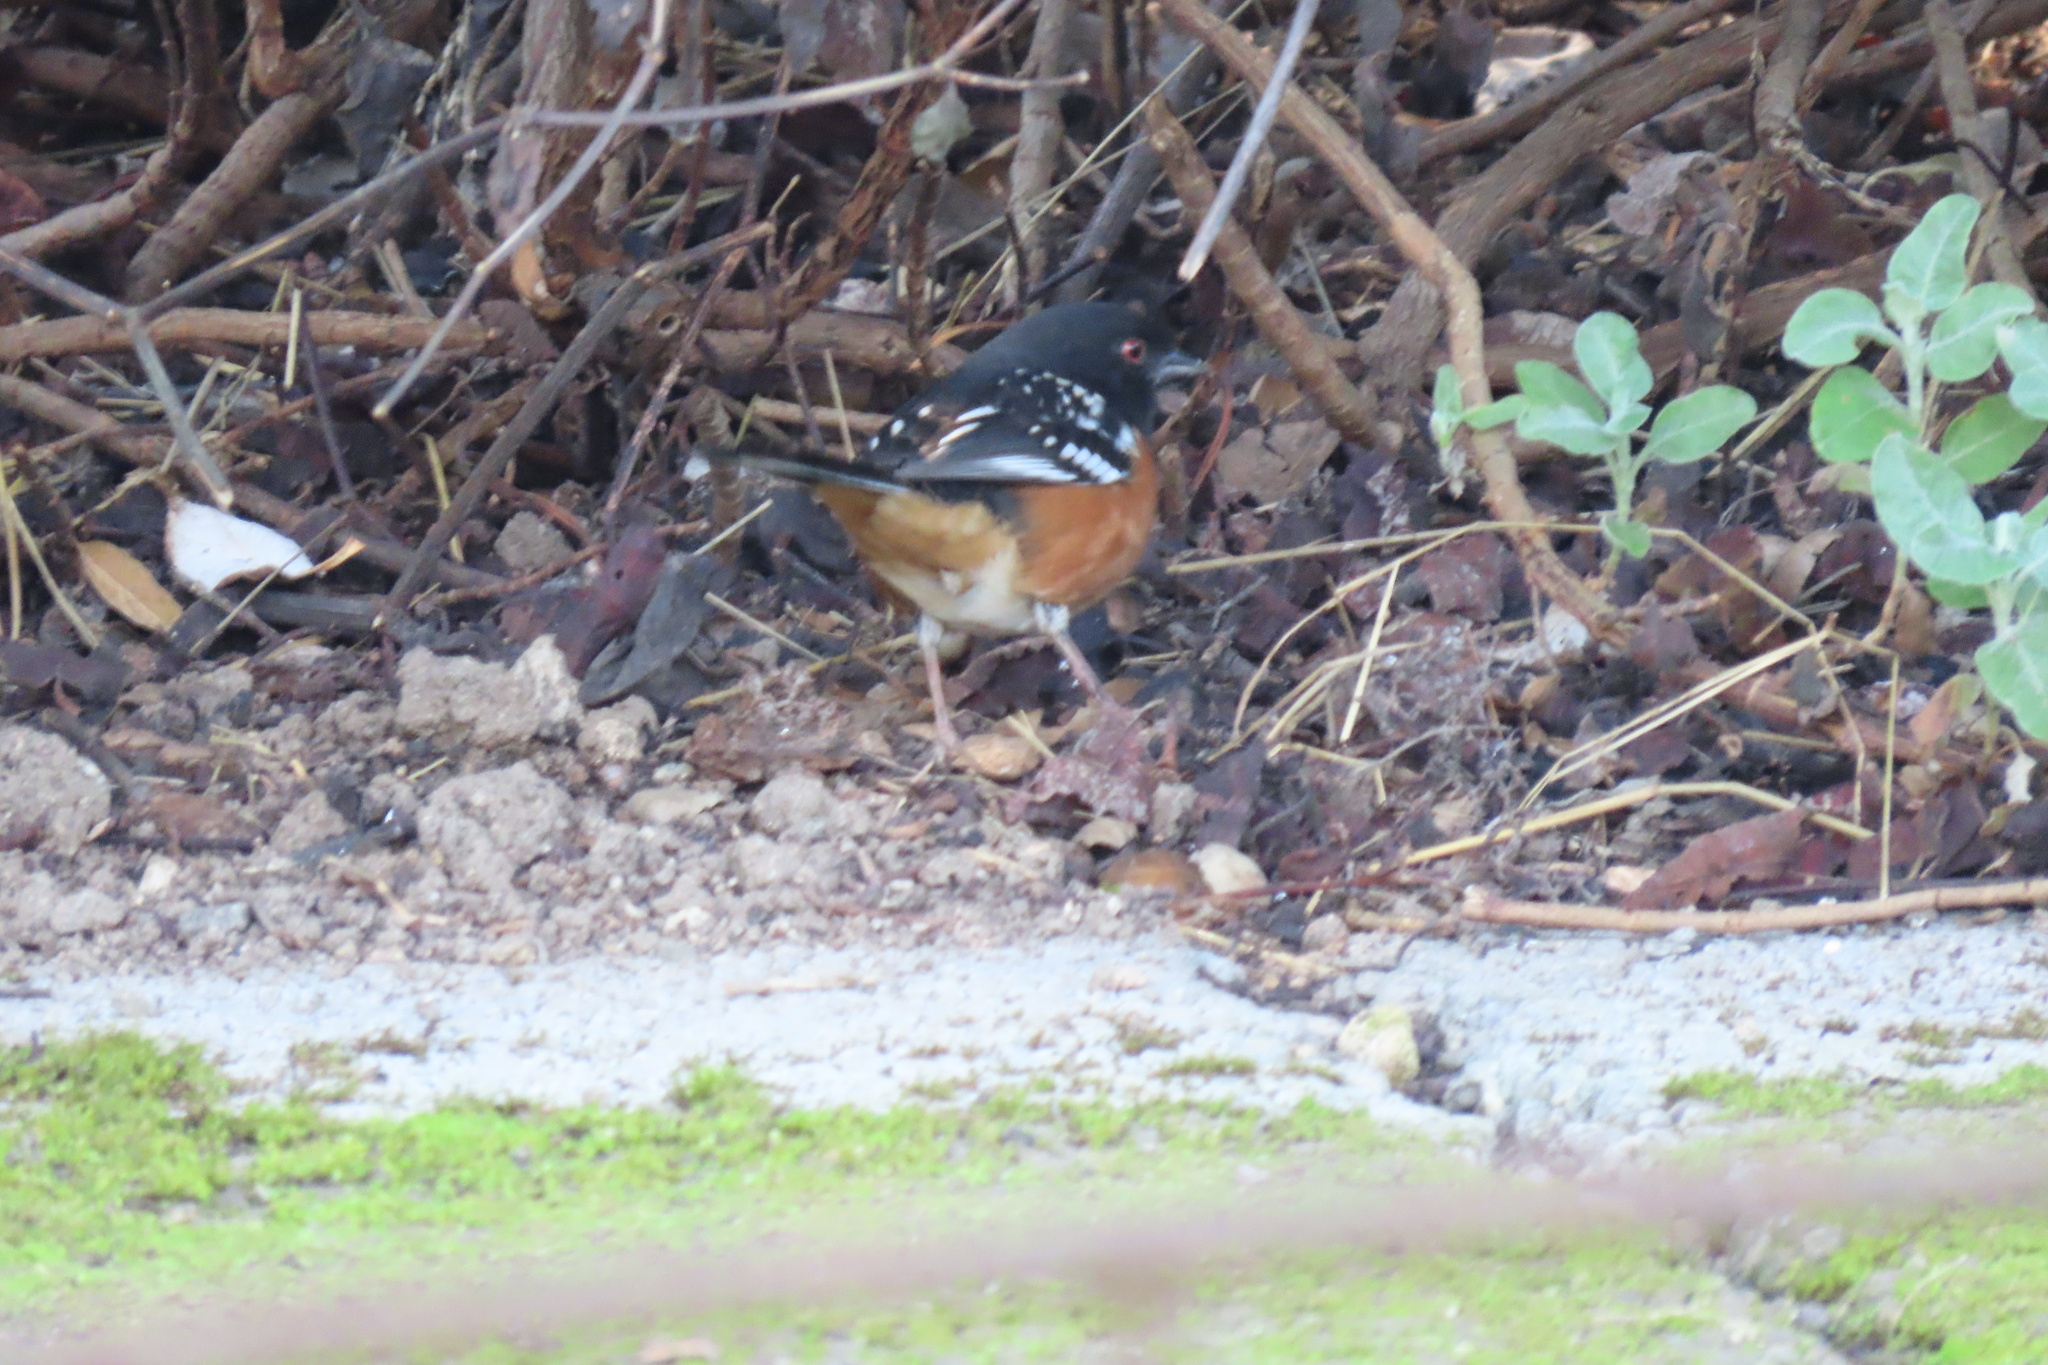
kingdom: Animalia
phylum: Chordata
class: Aves
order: Passeriformes
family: Passerellidae
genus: Pipilo
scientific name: Pipilo maculatus
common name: Spotted towhee
